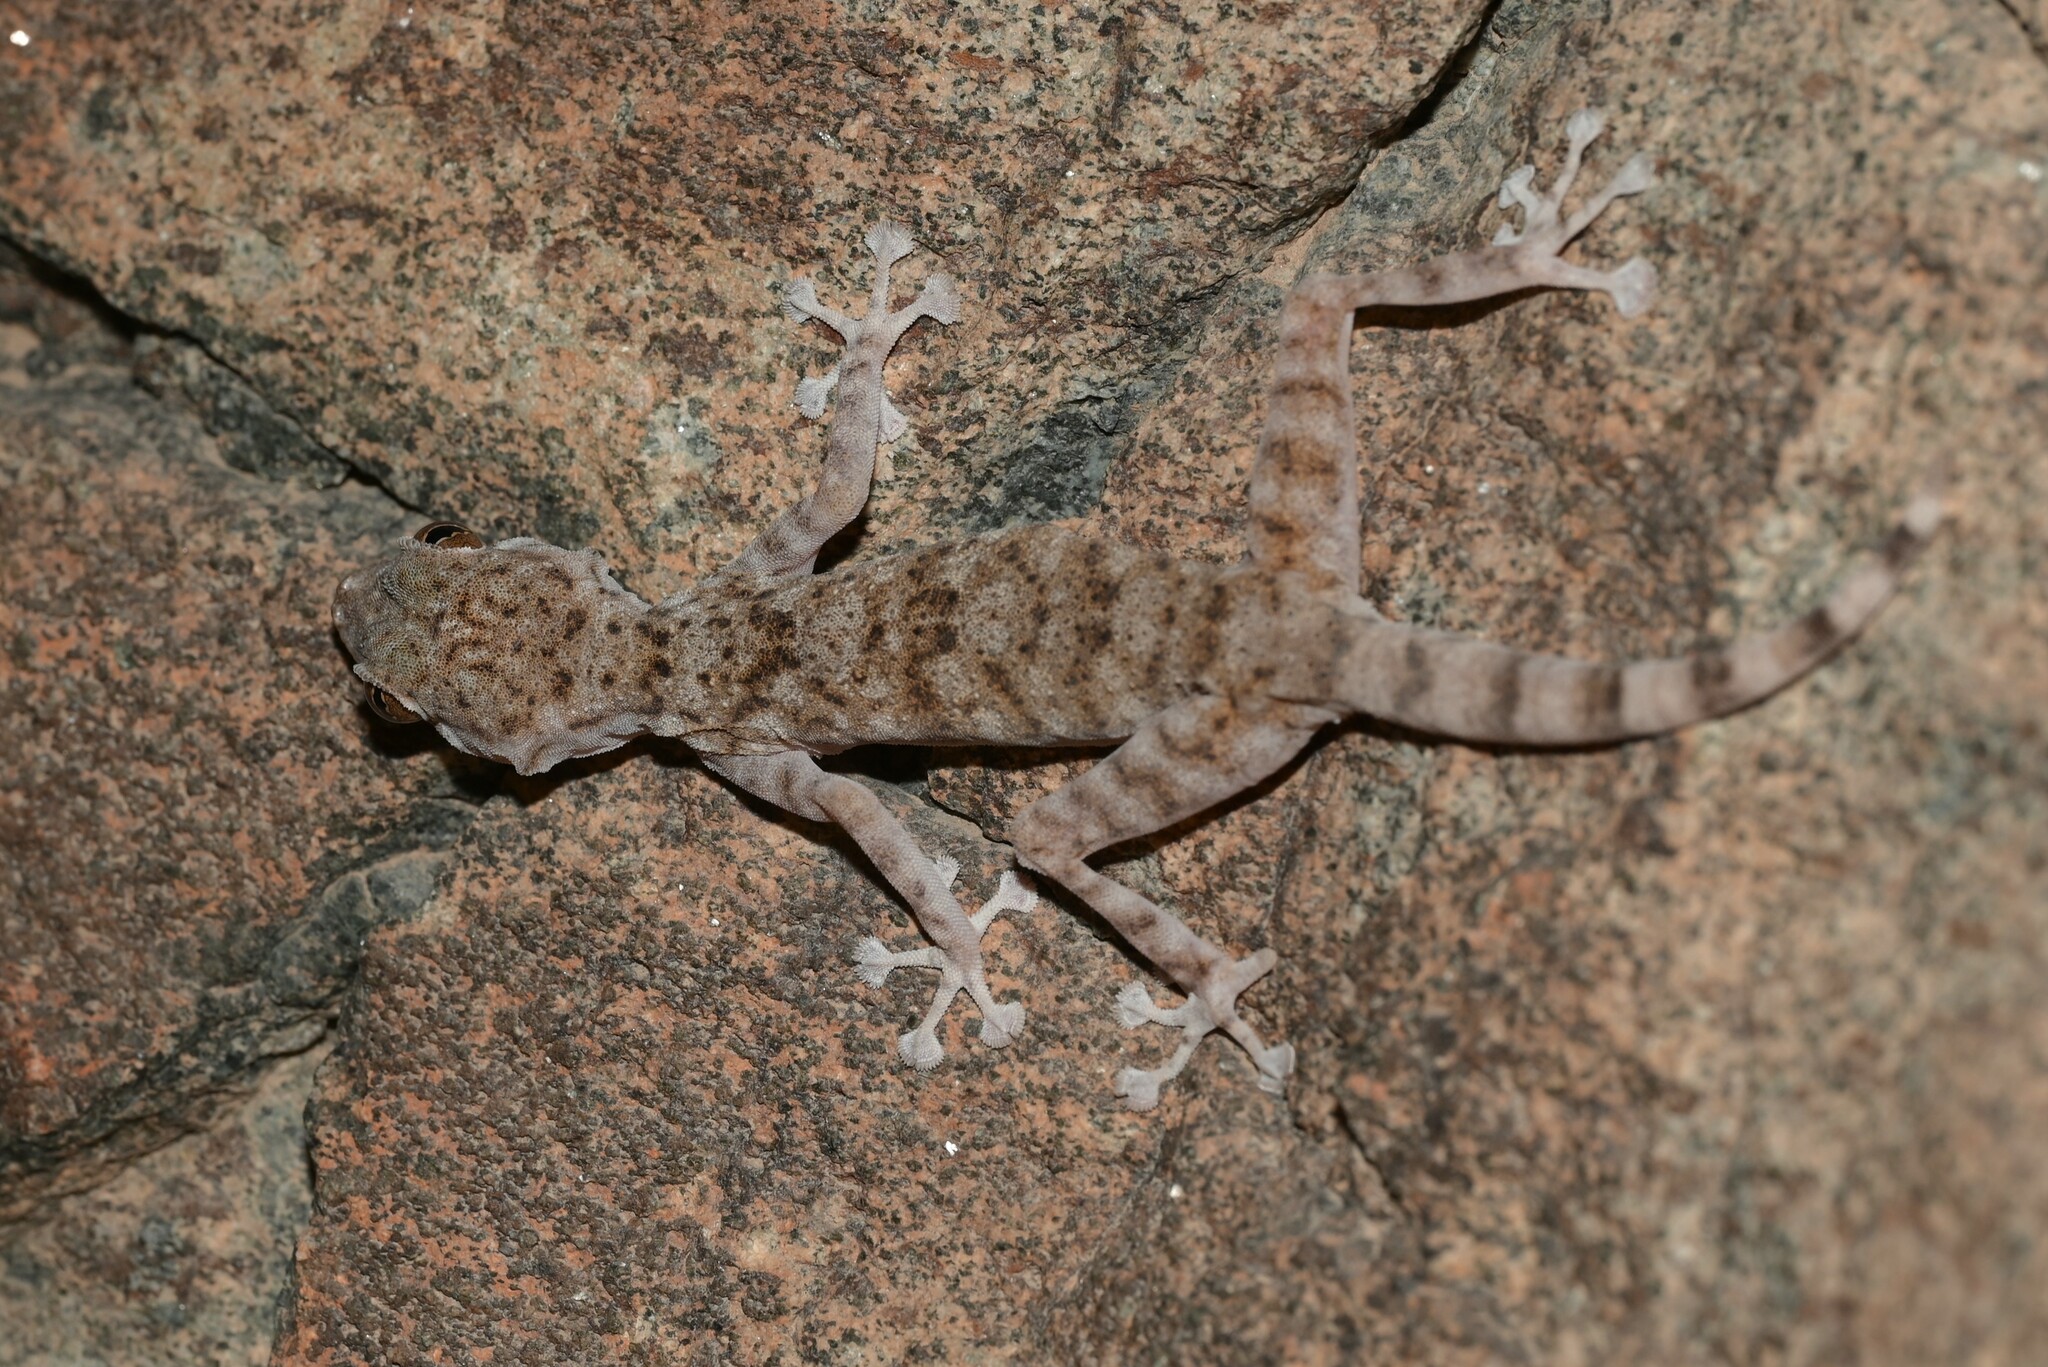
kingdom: Animalia
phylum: Chordata
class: Squamata
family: Phyllodactylidae
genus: Ptyodactylus
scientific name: Ptyodactylus orlovi
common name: Orlov's fan-footed gecko
